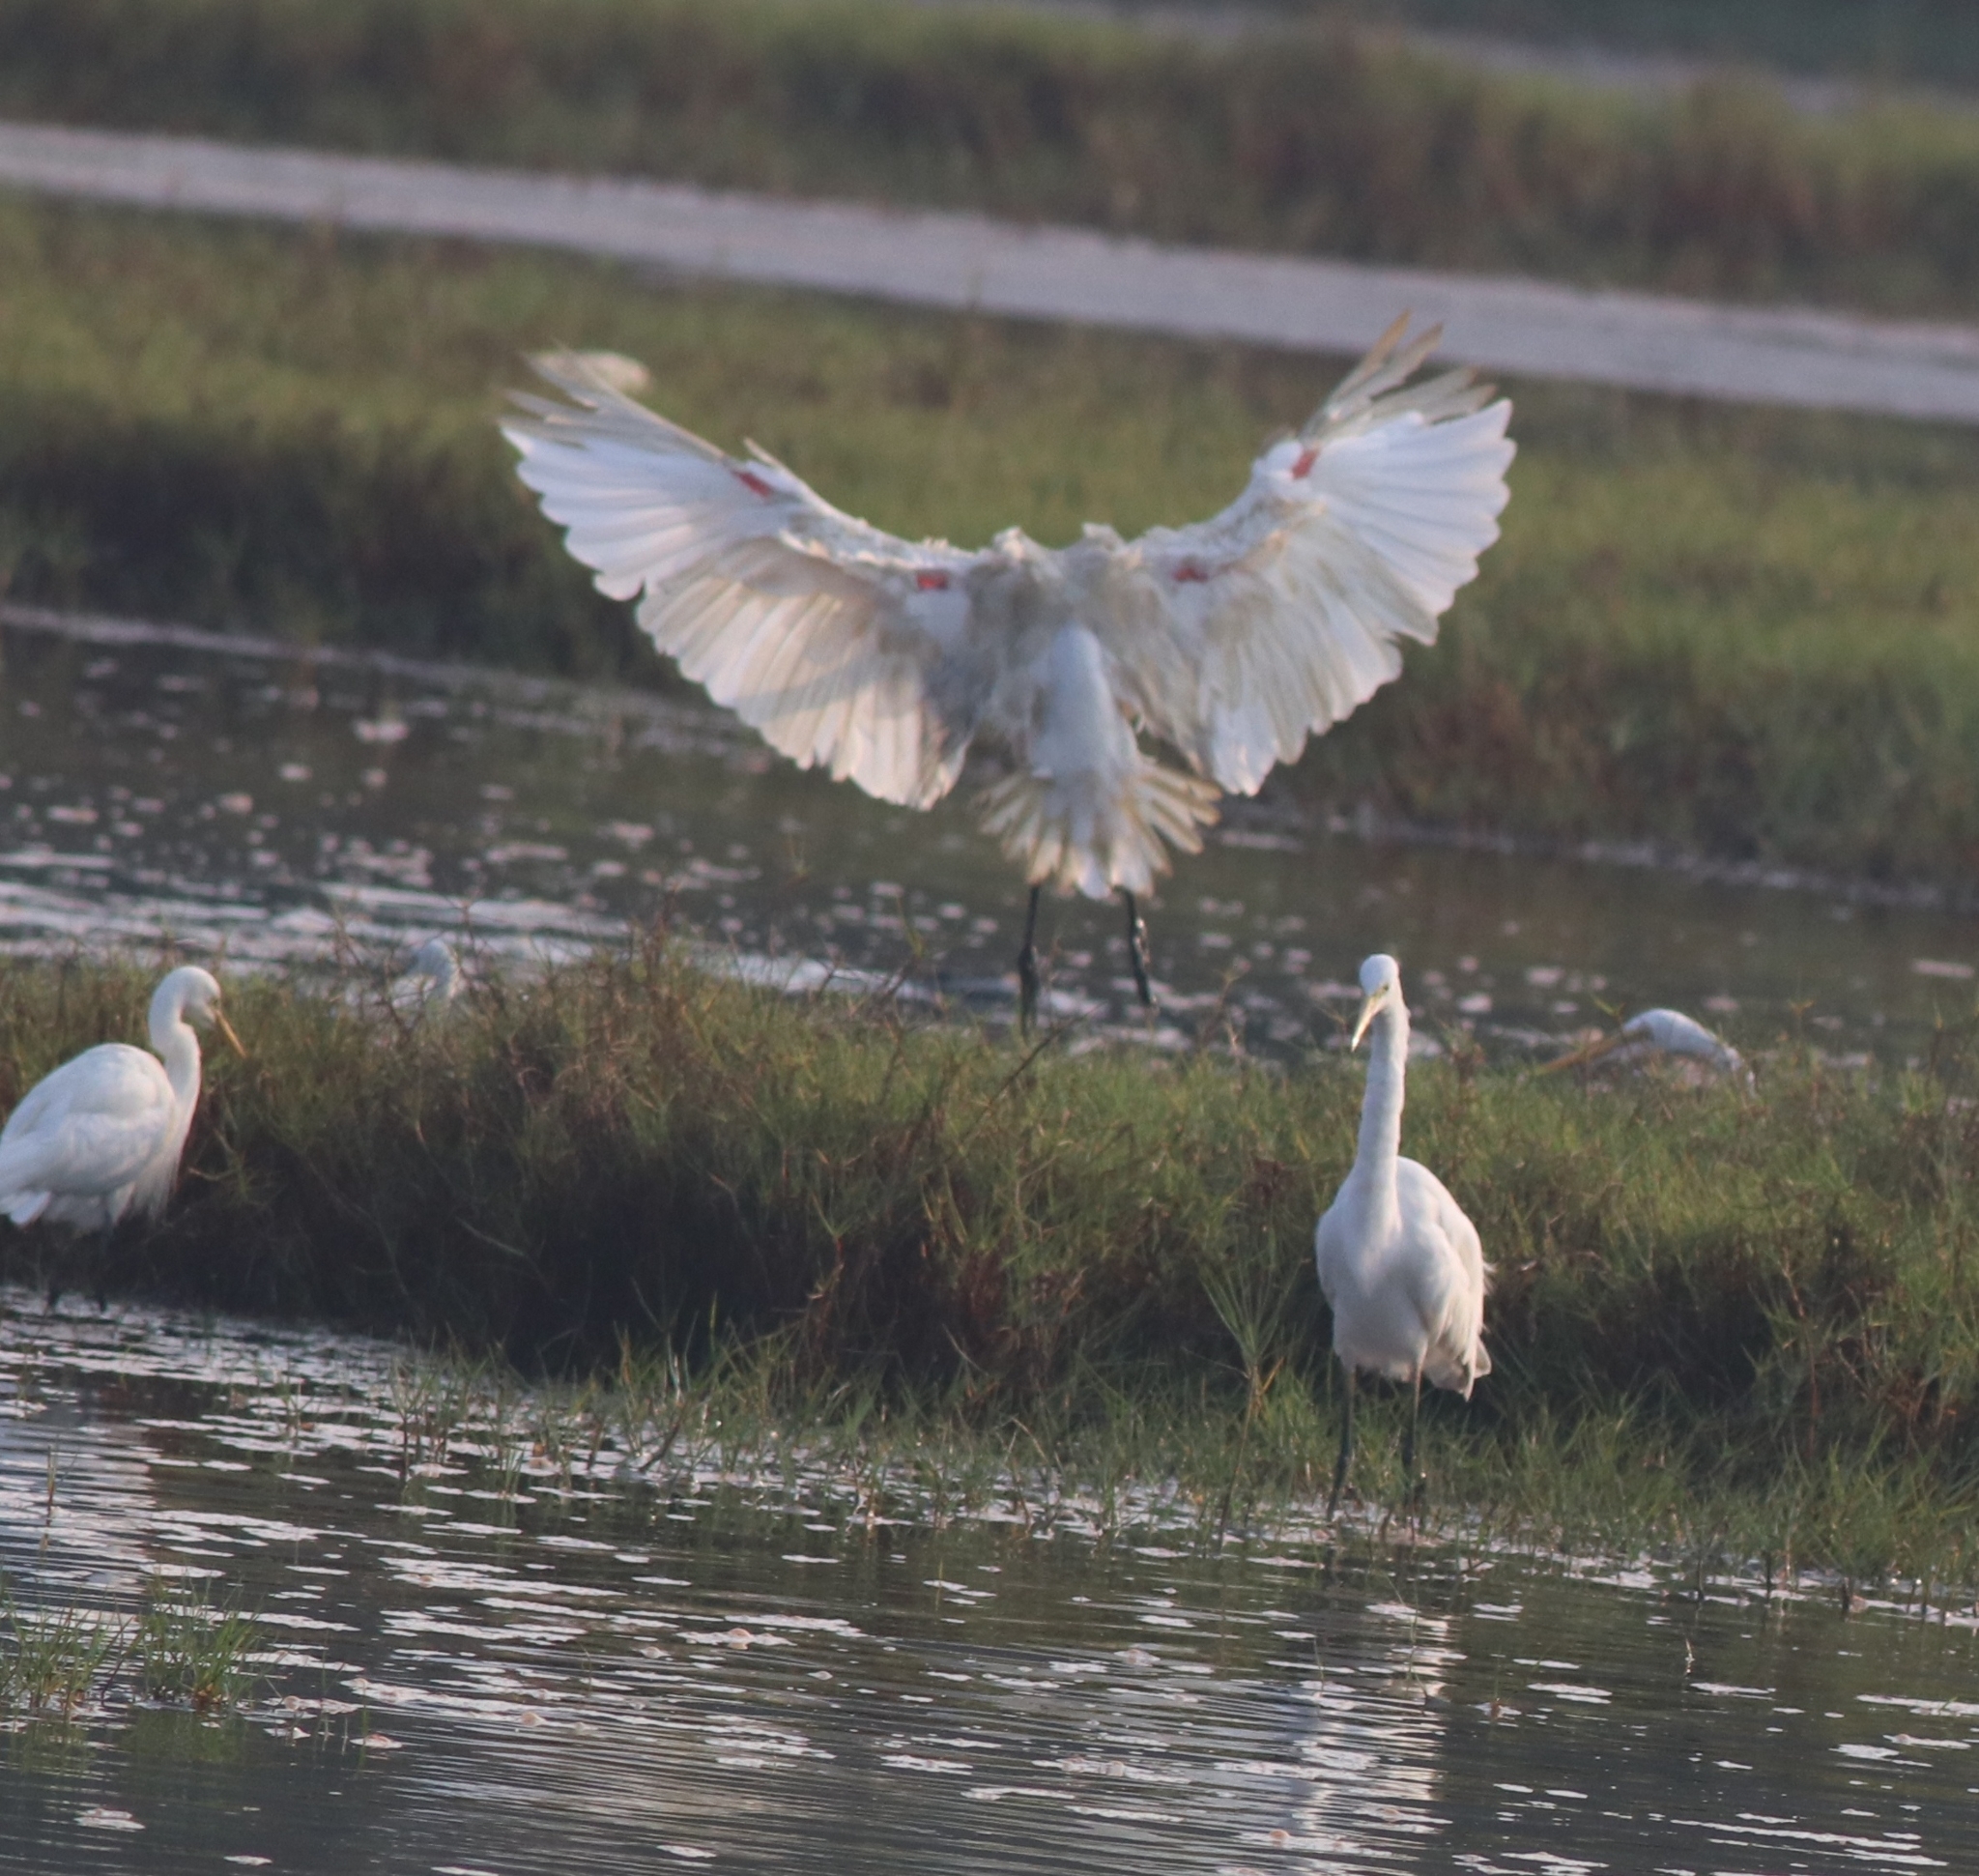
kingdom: Animalia
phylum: Chordata
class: Aves
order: Pelecaniformes
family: Threskiornithidae
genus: Threskiornis
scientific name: Threskiornis melanocephalus
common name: Black-headed ibis
